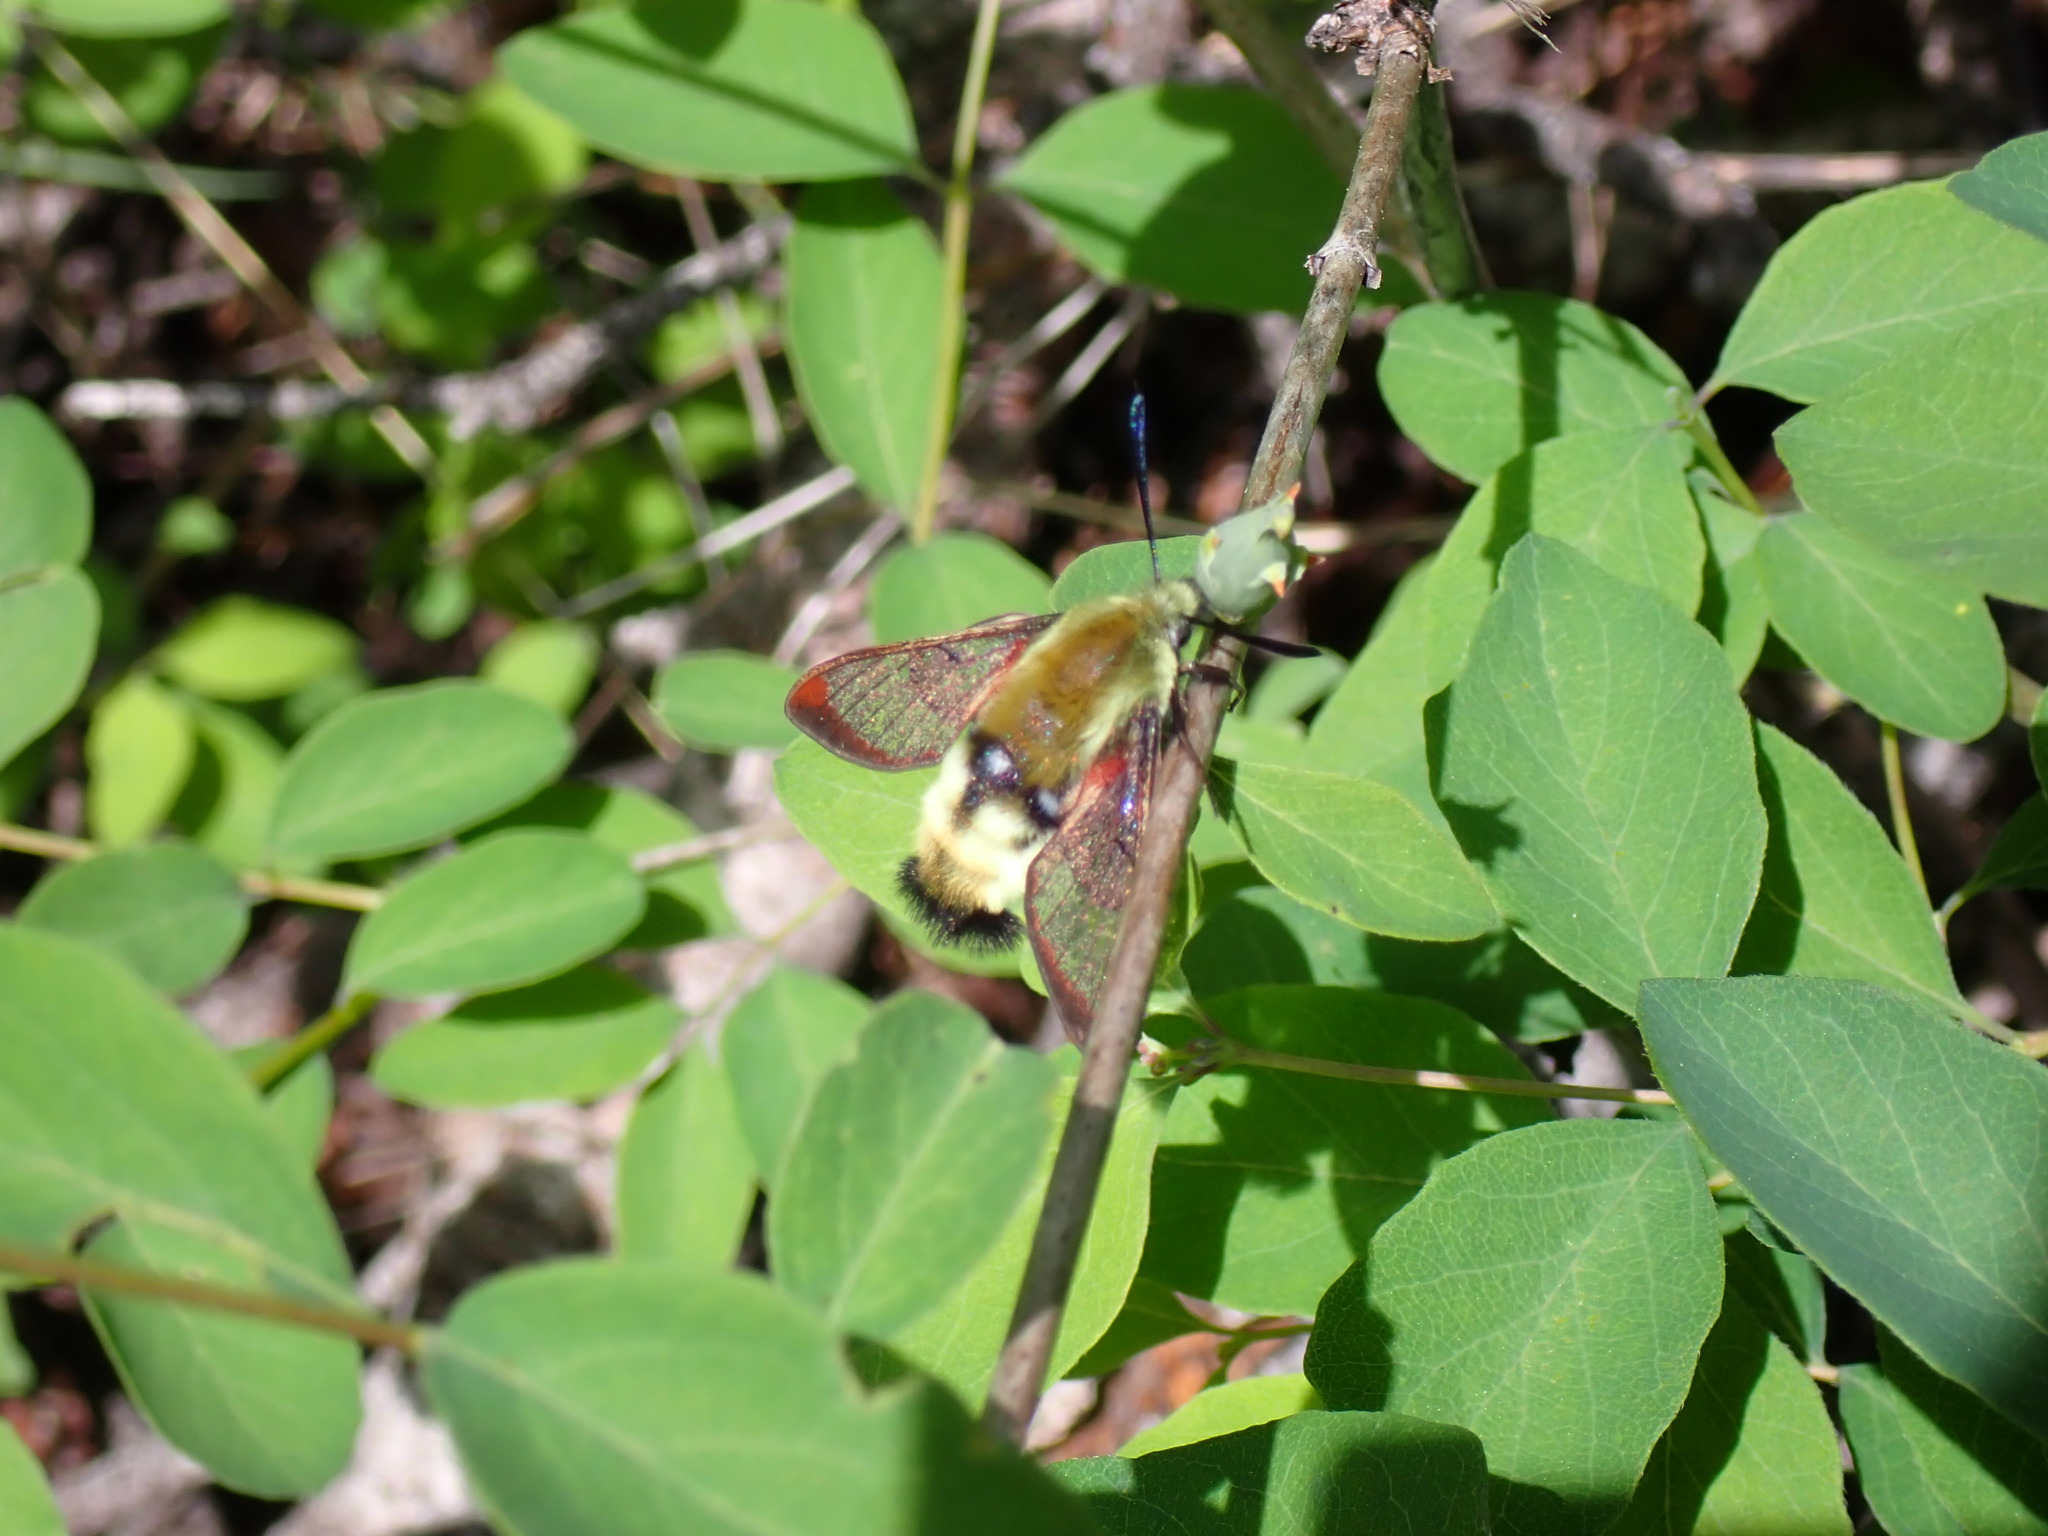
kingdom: Animalia
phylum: Arthropoda
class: Insecta
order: Lepidoptera
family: Sphingidae
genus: Hemaris
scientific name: Hemaris thetis
